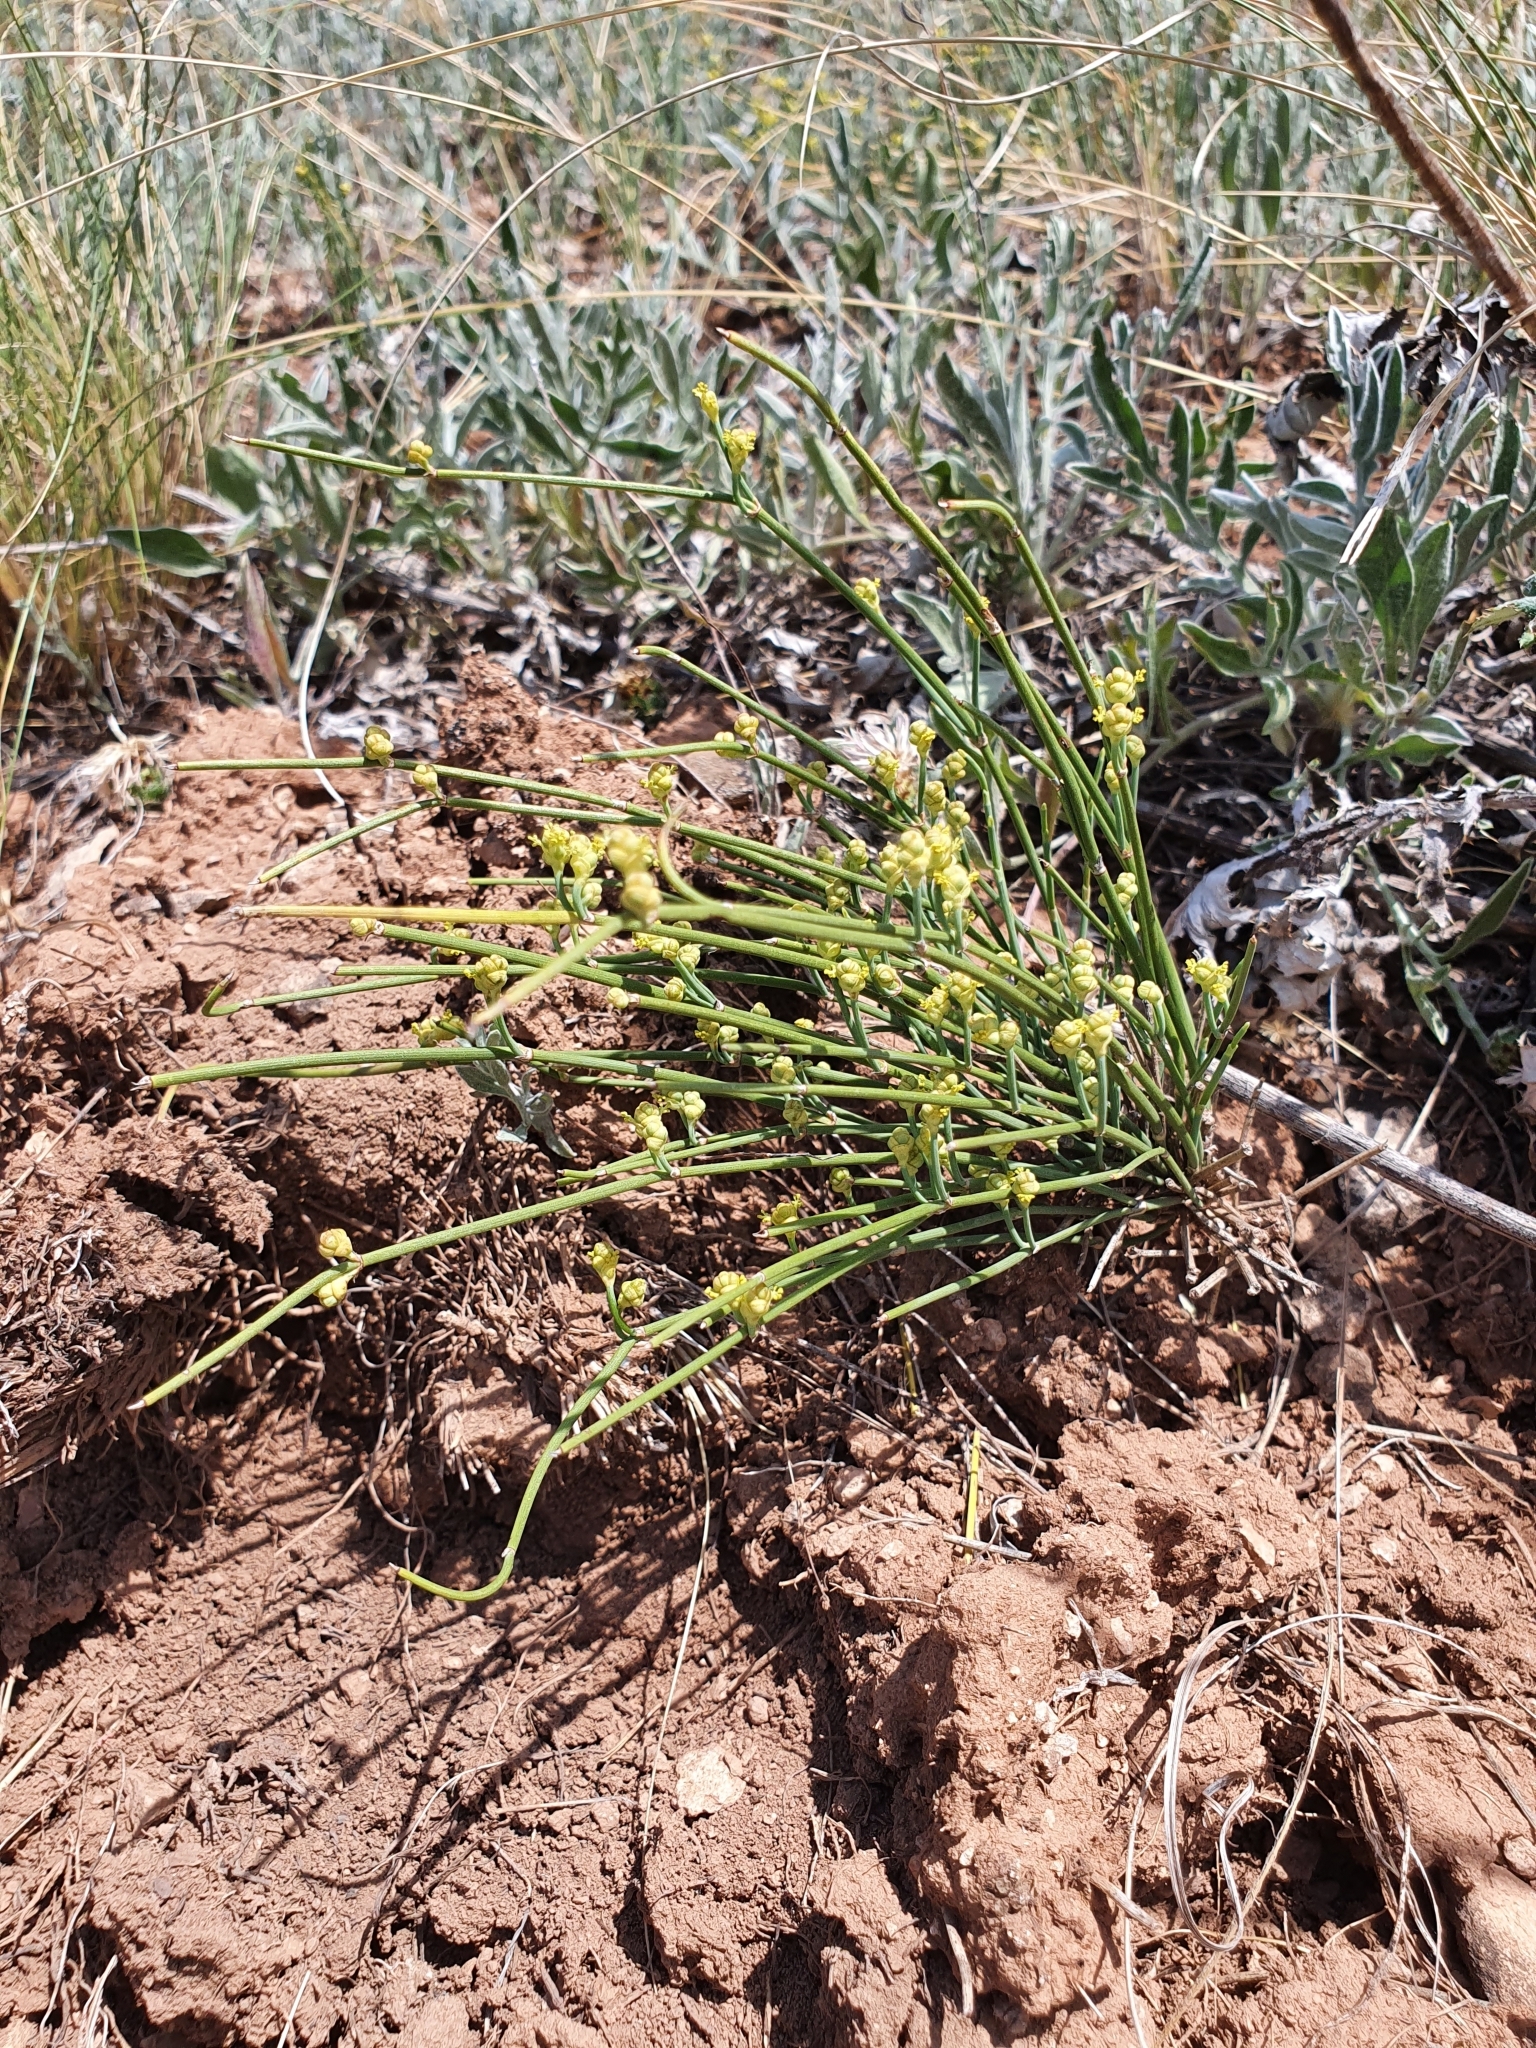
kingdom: Plantae
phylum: Tracheophyta
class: Gnetopsida
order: Ephedrales
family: Ephedraceae
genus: Ephedra
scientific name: Ephedra distachya
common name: Sea grape
